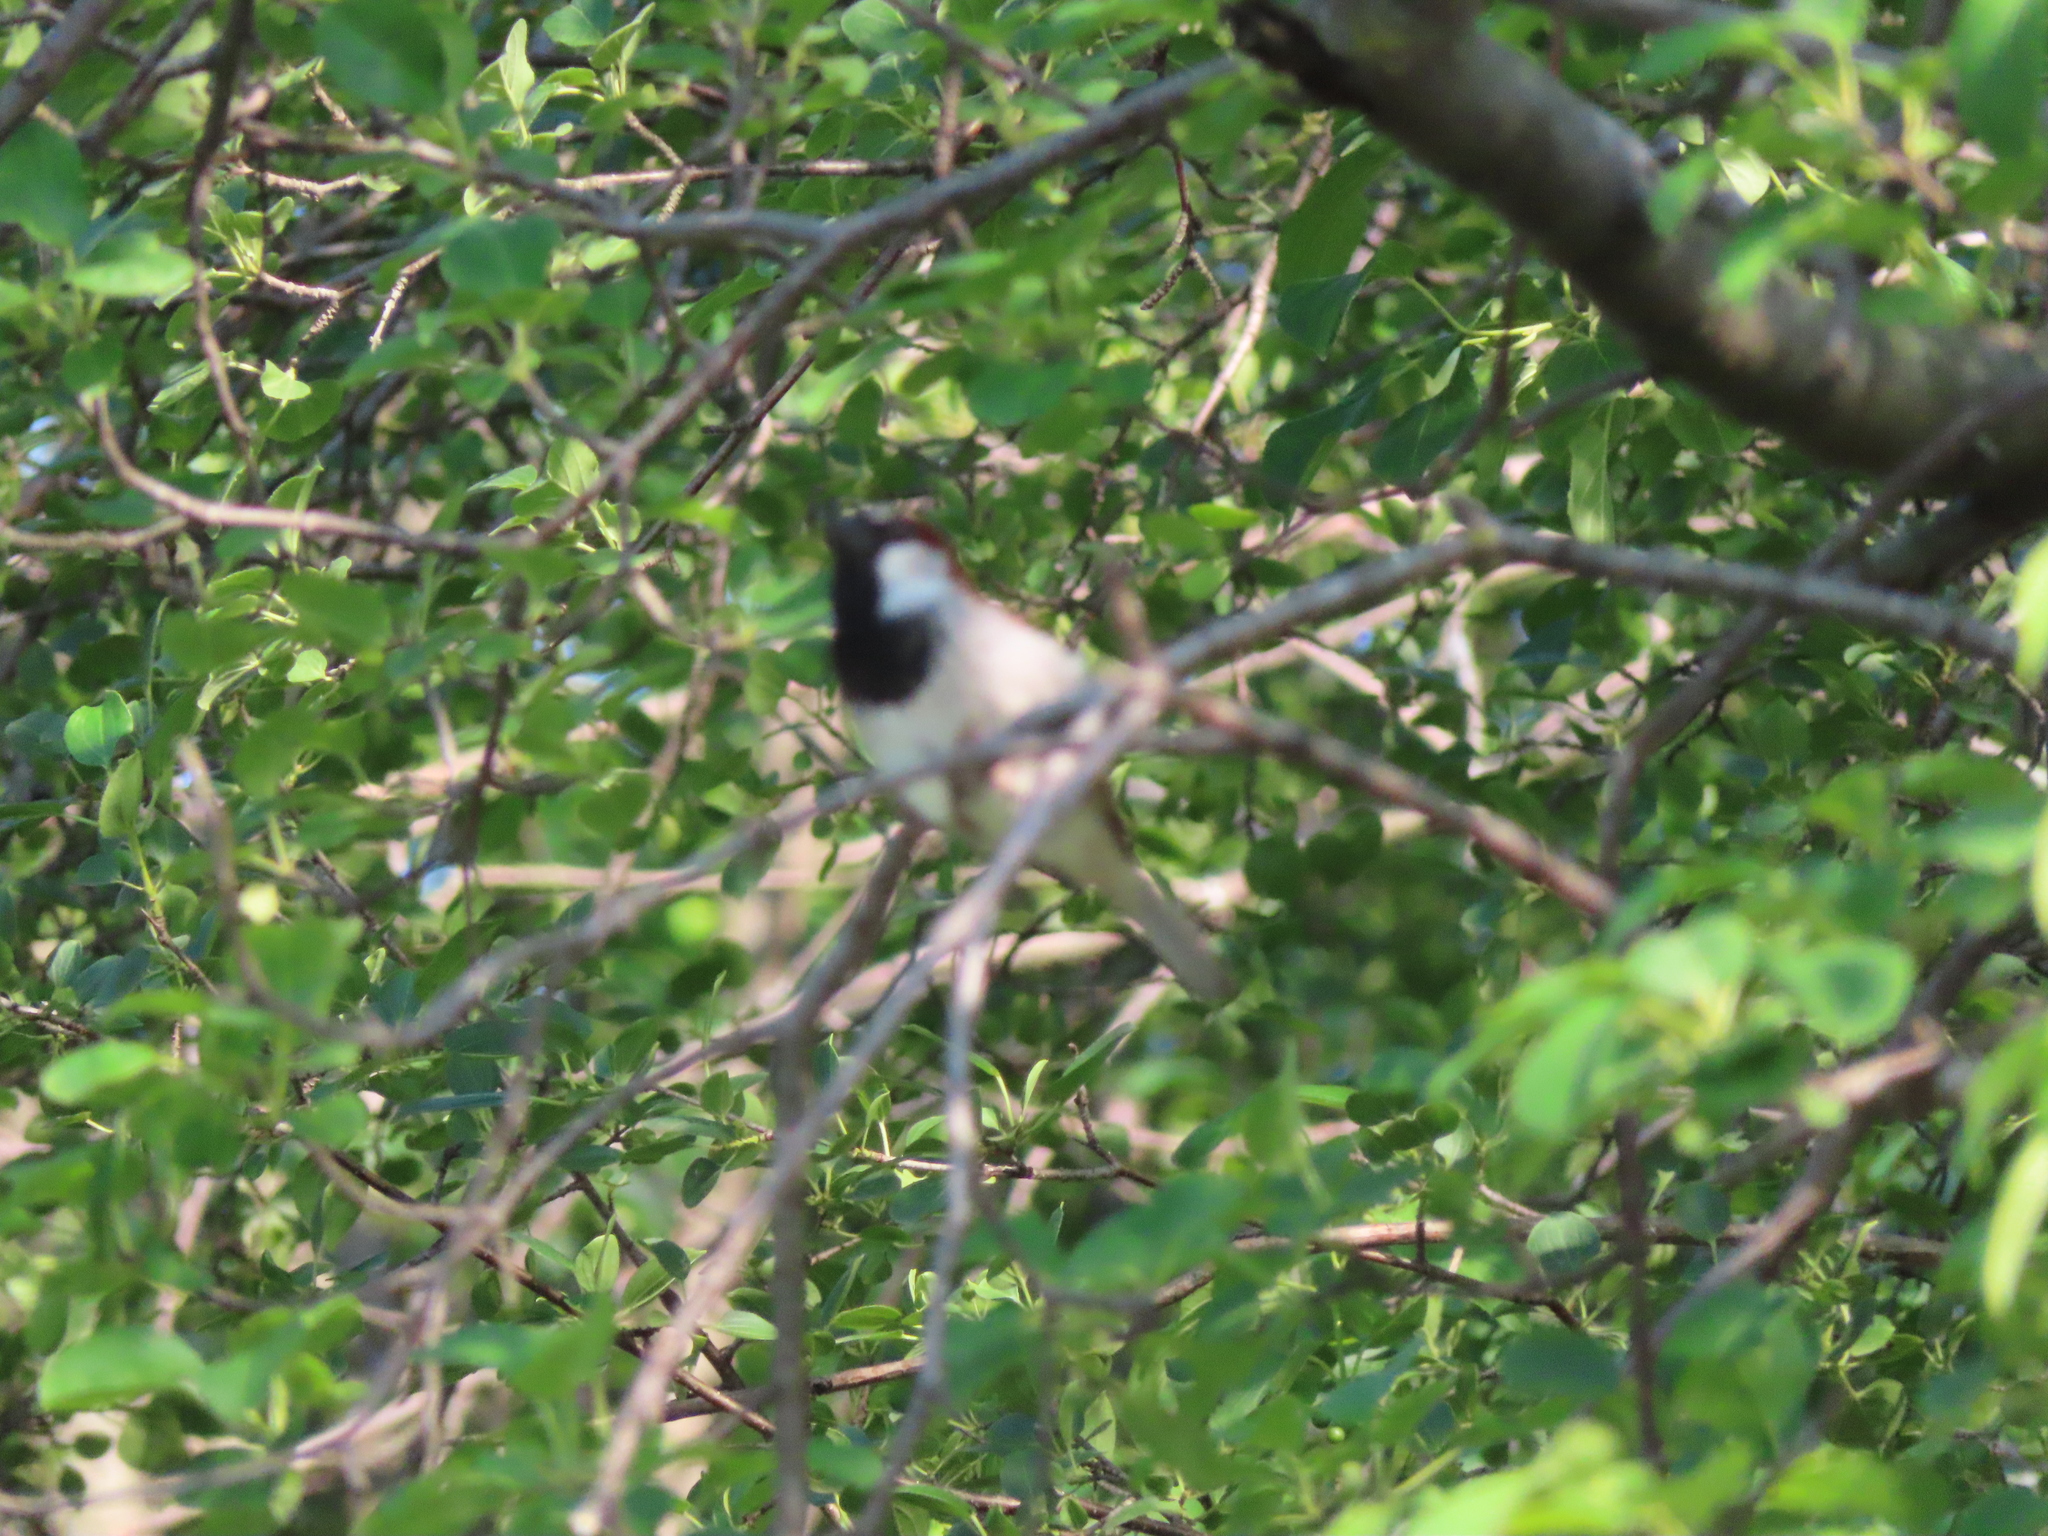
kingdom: Animalia
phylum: Chordata
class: Aves
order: Passeriformes
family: Passeridae
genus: Passer
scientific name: Passer domesticus
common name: House sparrow
